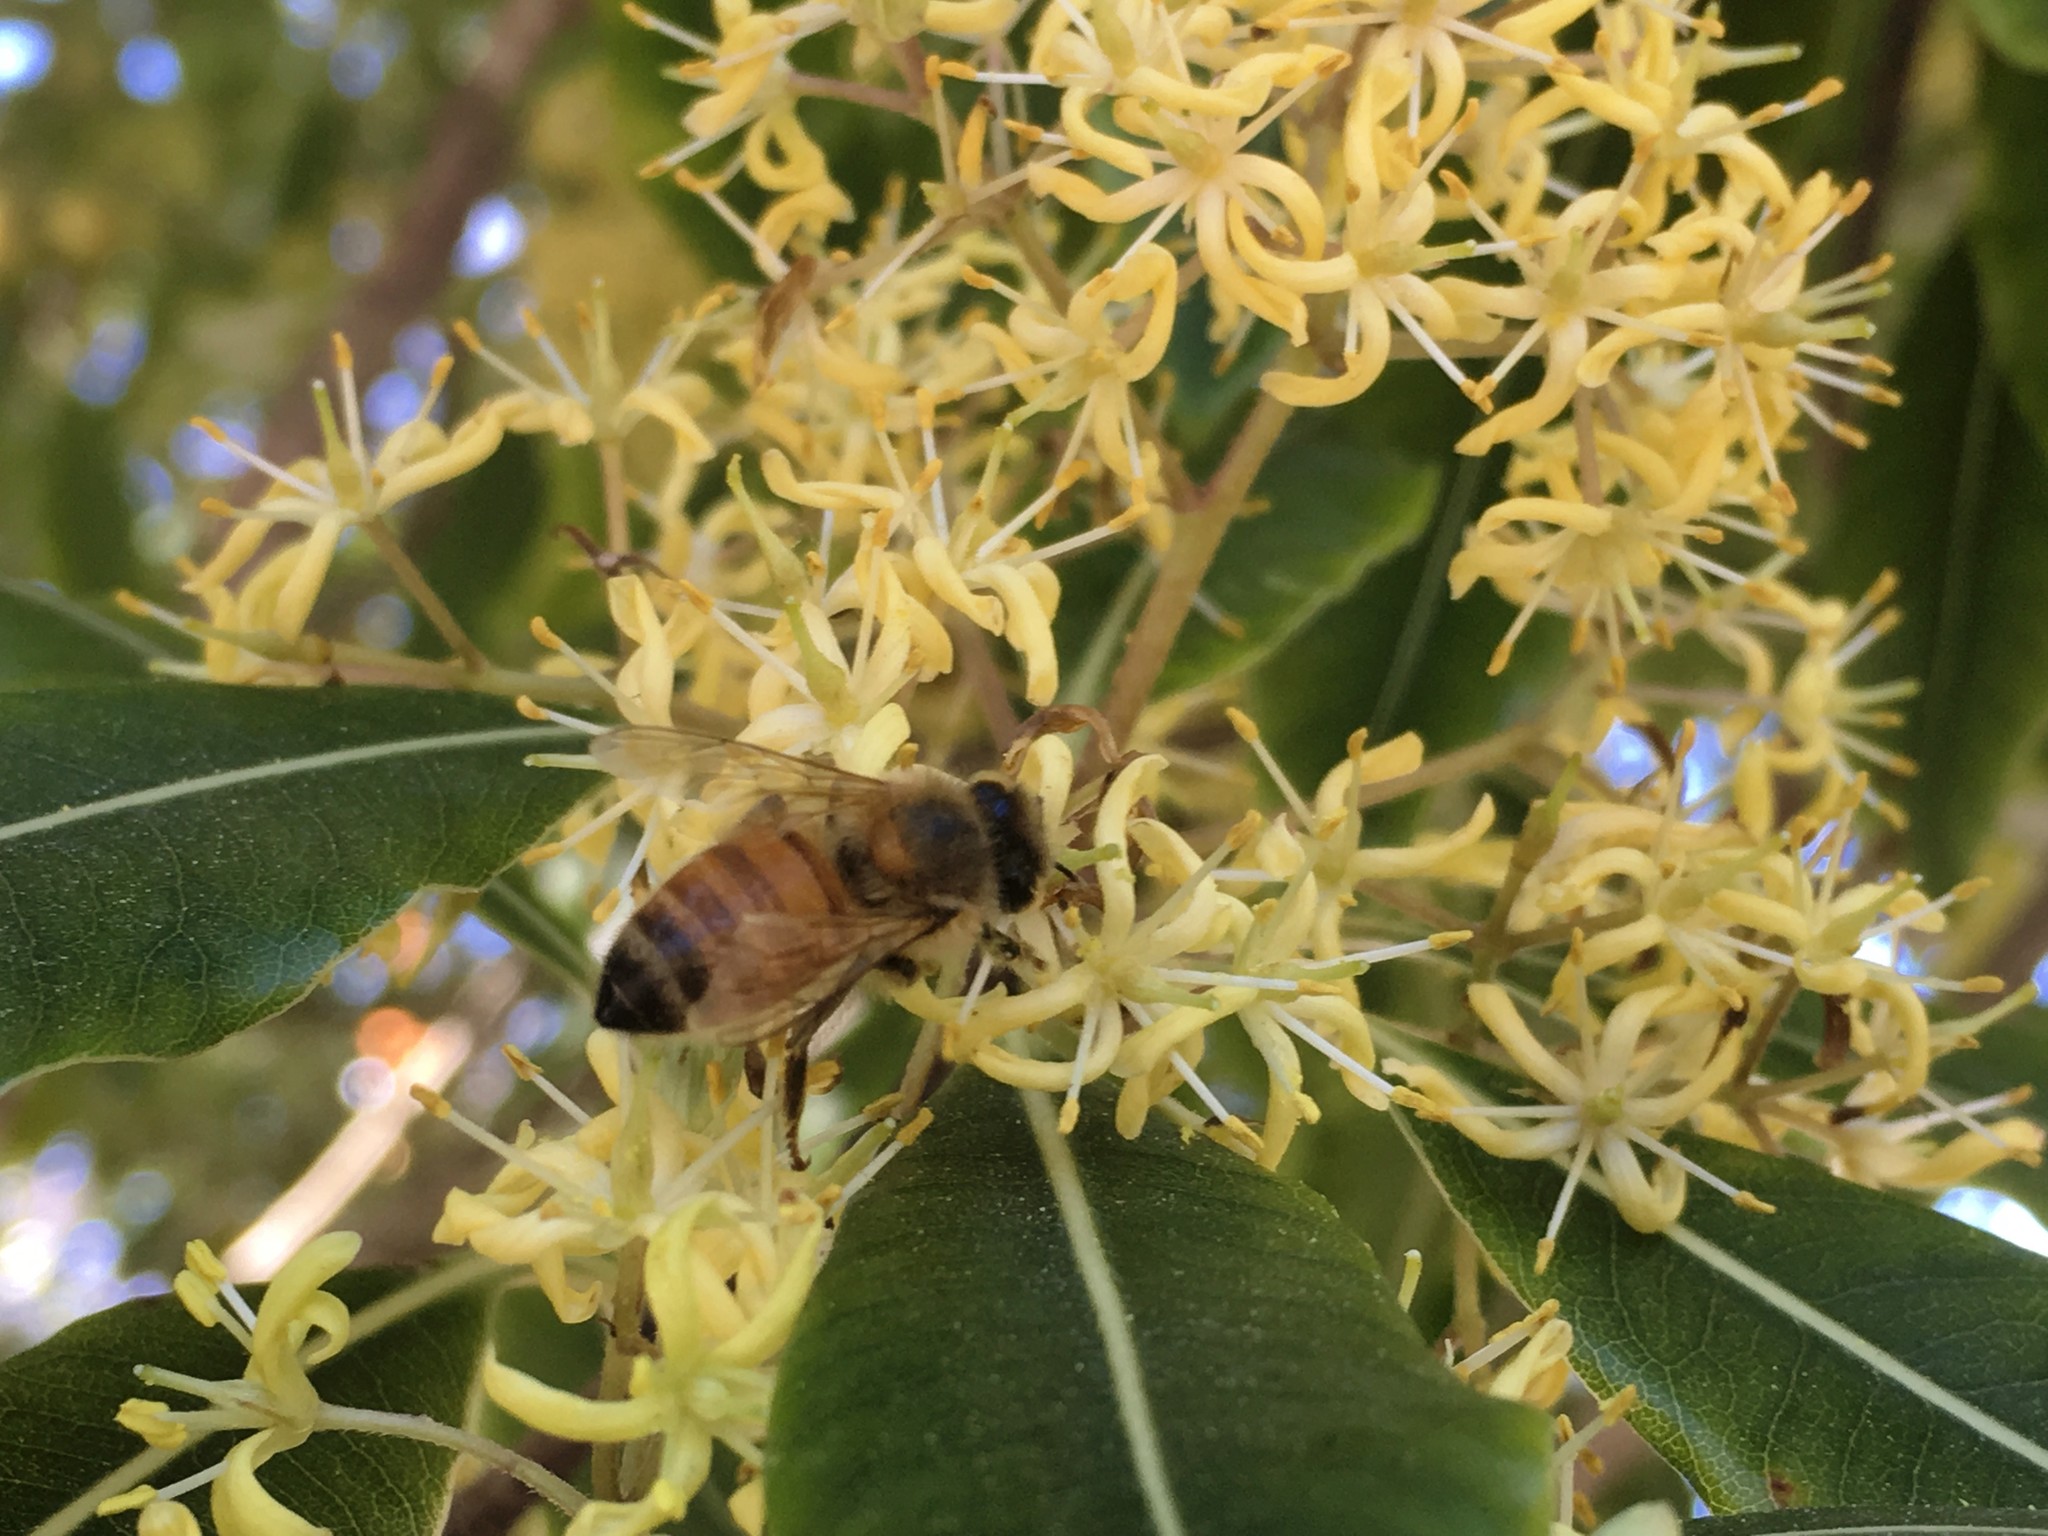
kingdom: Animalia
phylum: Arthropoda
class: Insecta
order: Hymenoptera
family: Apidae
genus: Apis
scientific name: Apis mellifera
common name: Honey bee
